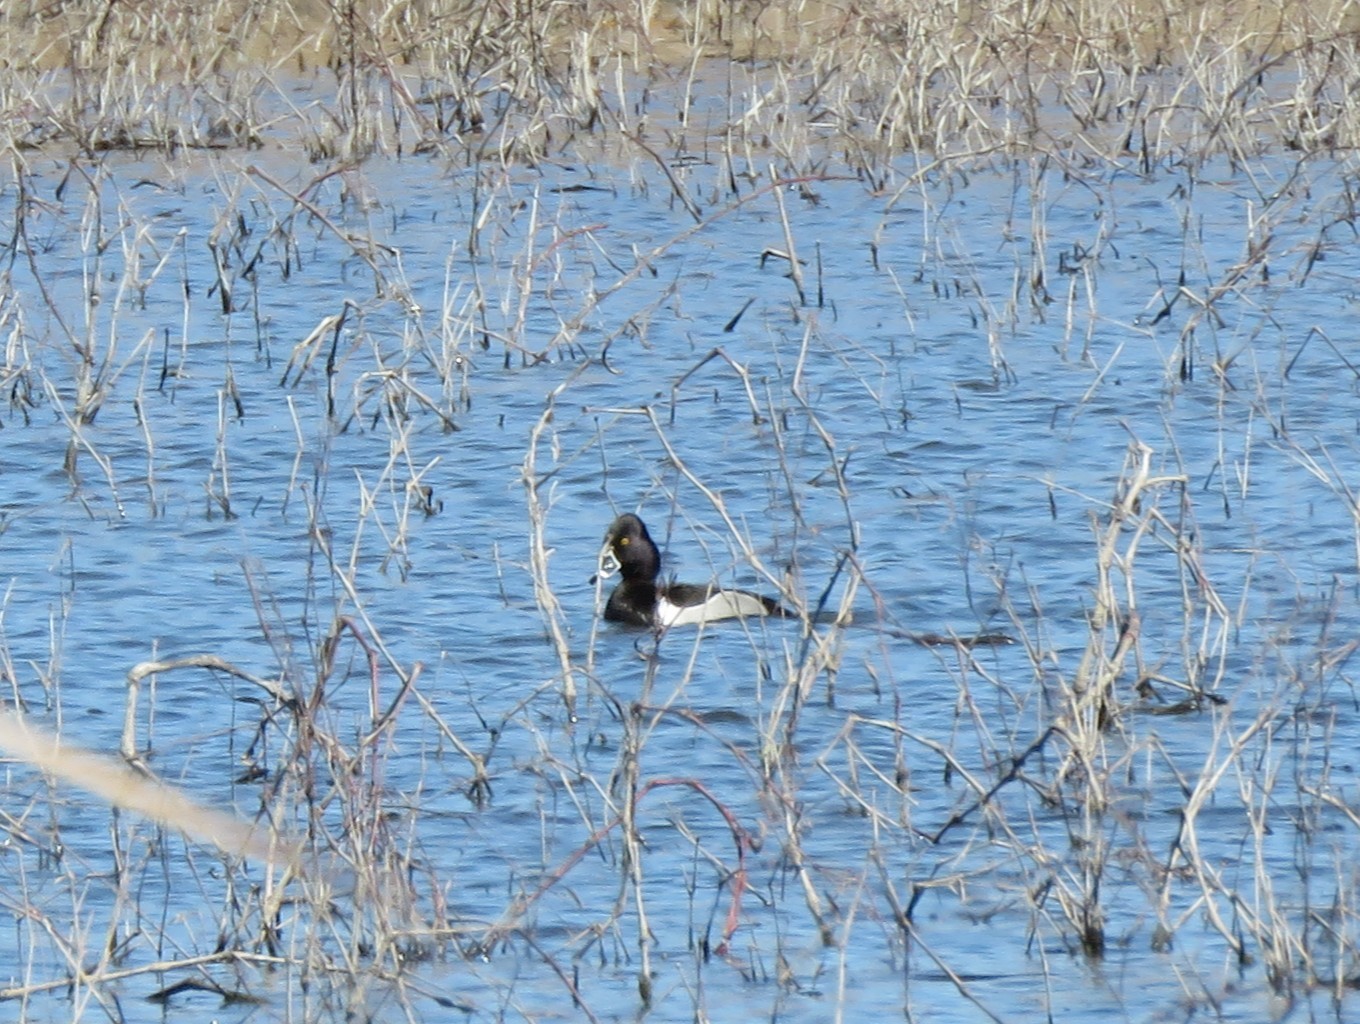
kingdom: Animalia
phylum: Chordata
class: Aves
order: Anseriformes
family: Anatidae
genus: Aythya
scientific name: Aythya collaris
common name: Ring-necked duck
